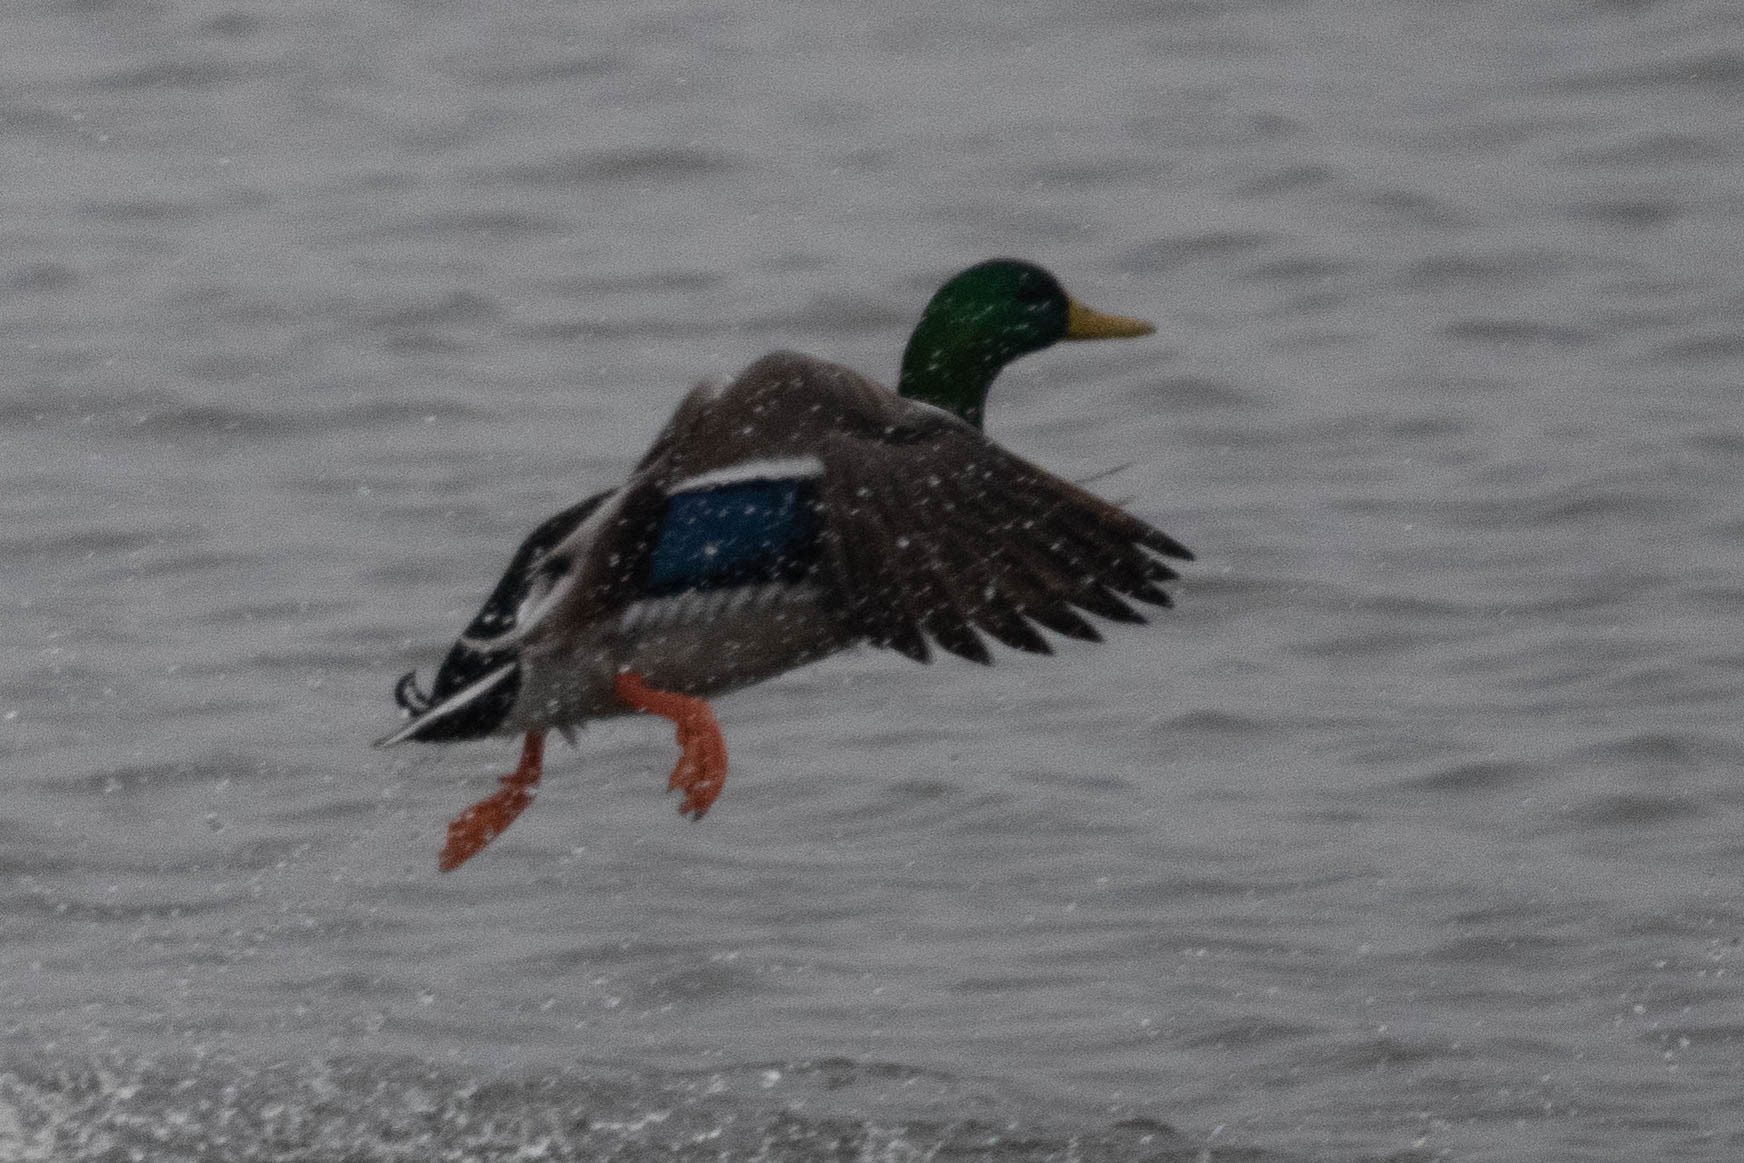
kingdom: Animalia
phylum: Chordata
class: Aves
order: Anseriformes
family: Anatidae
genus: Anas
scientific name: Anas platyrhynchos
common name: Mallard
